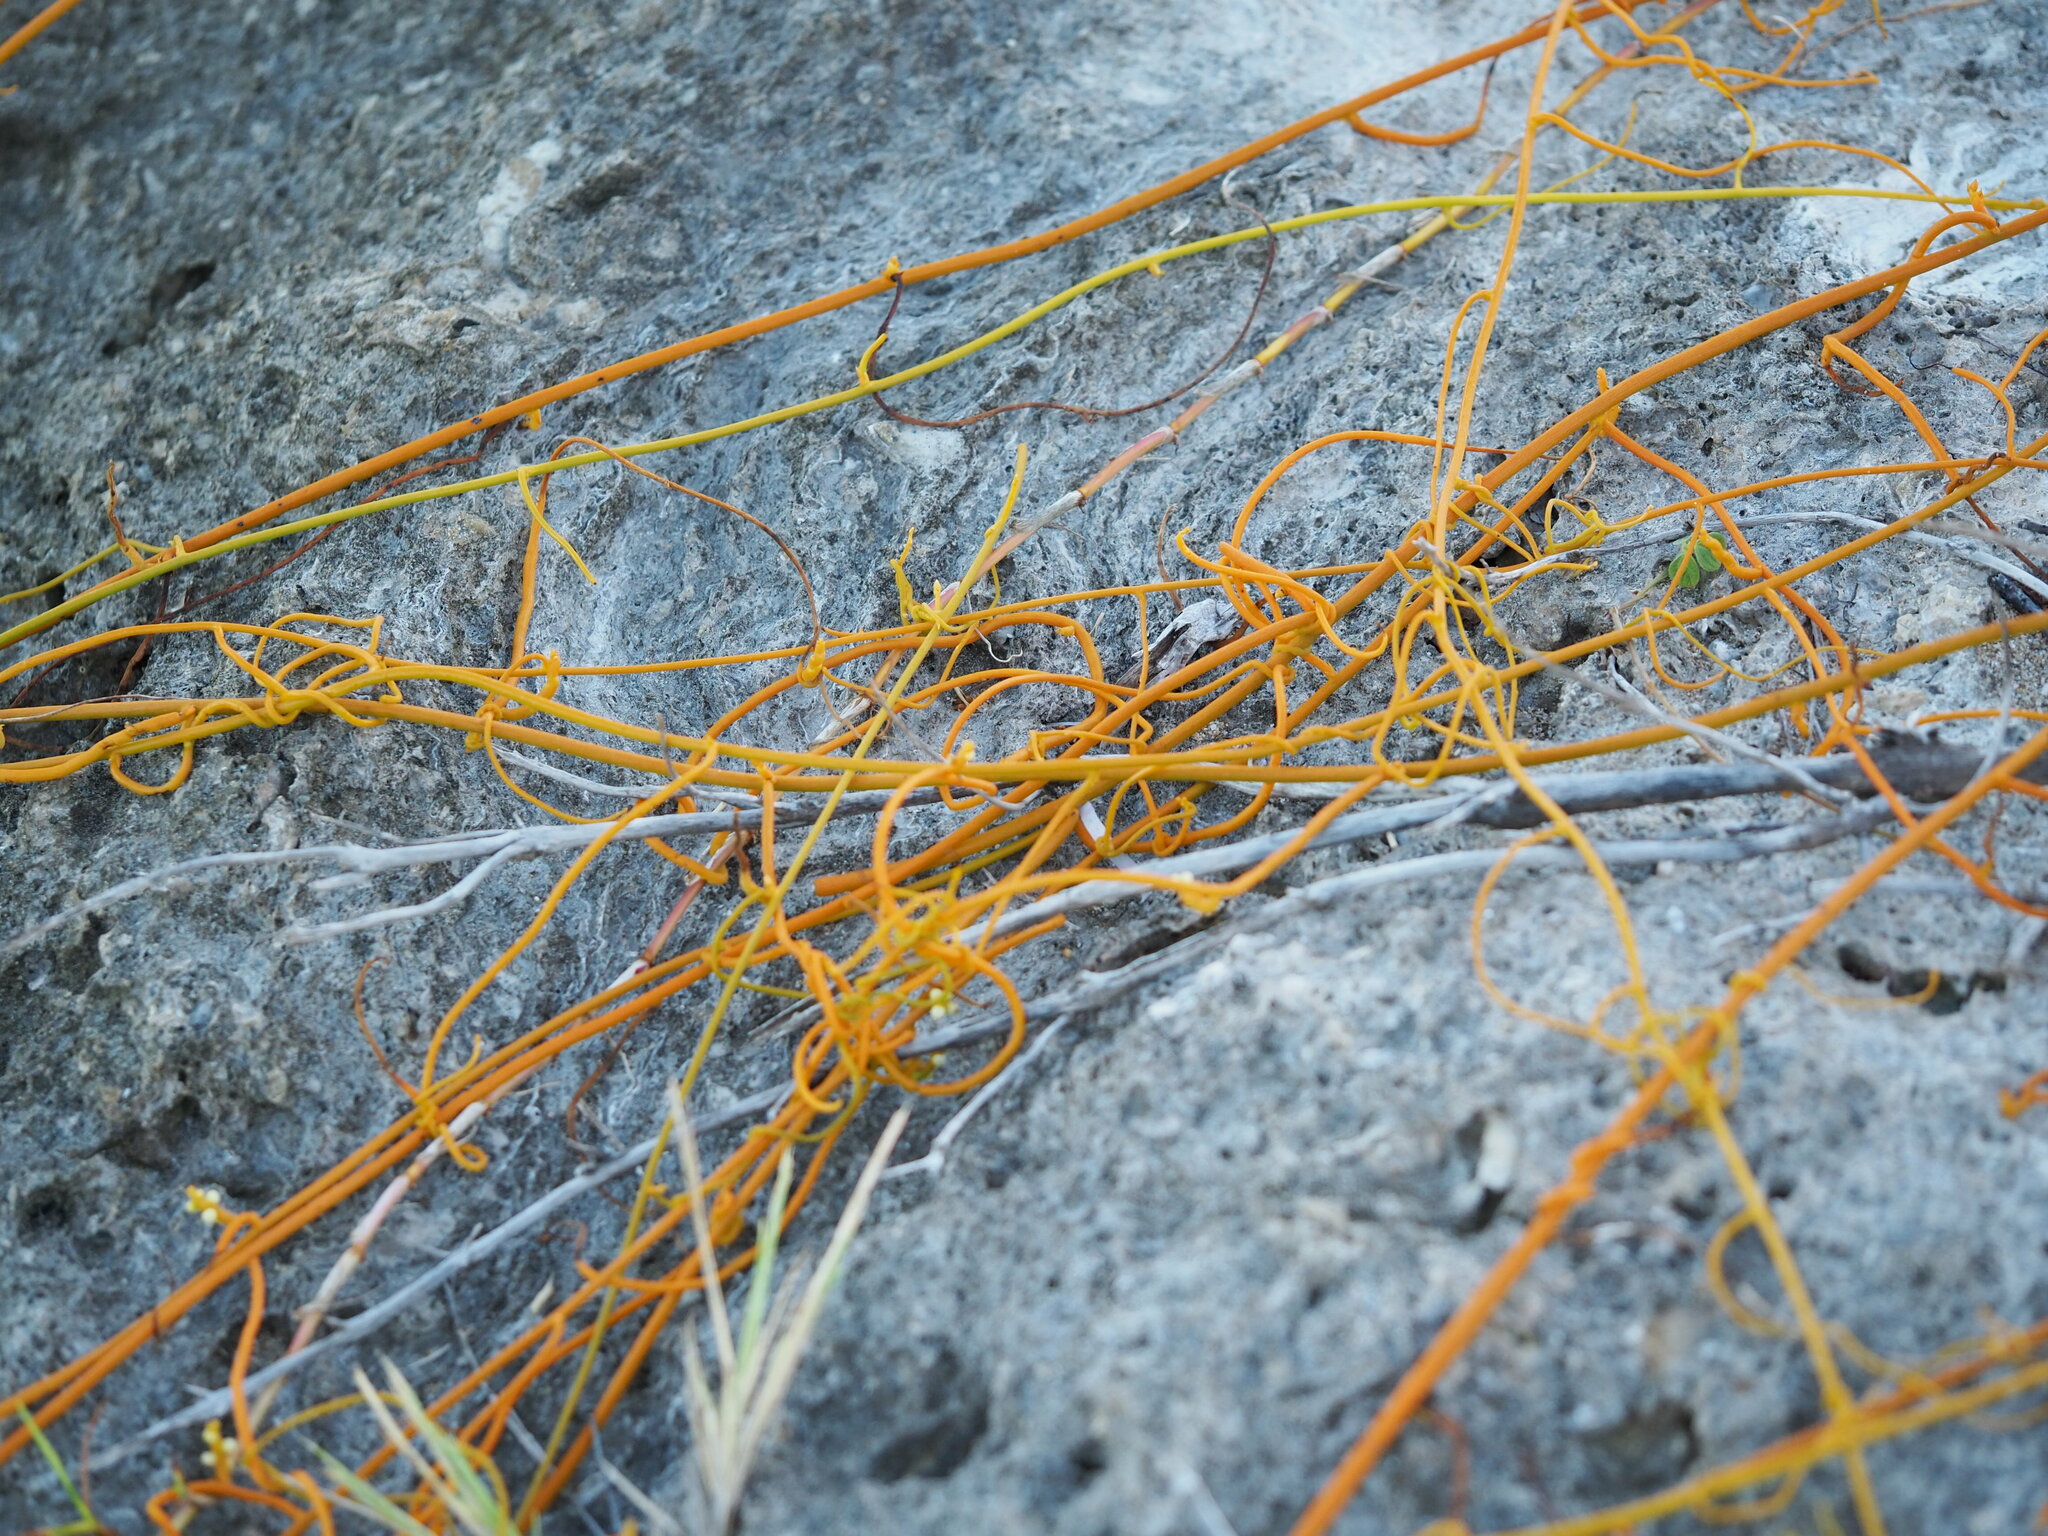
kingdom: Plantae
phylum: Tracheophyta
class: Magnoliopsida
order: Laurales
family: Lauraceae
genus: Cassytha
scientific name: Cassytha filiformis
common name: Dodder-laurel
